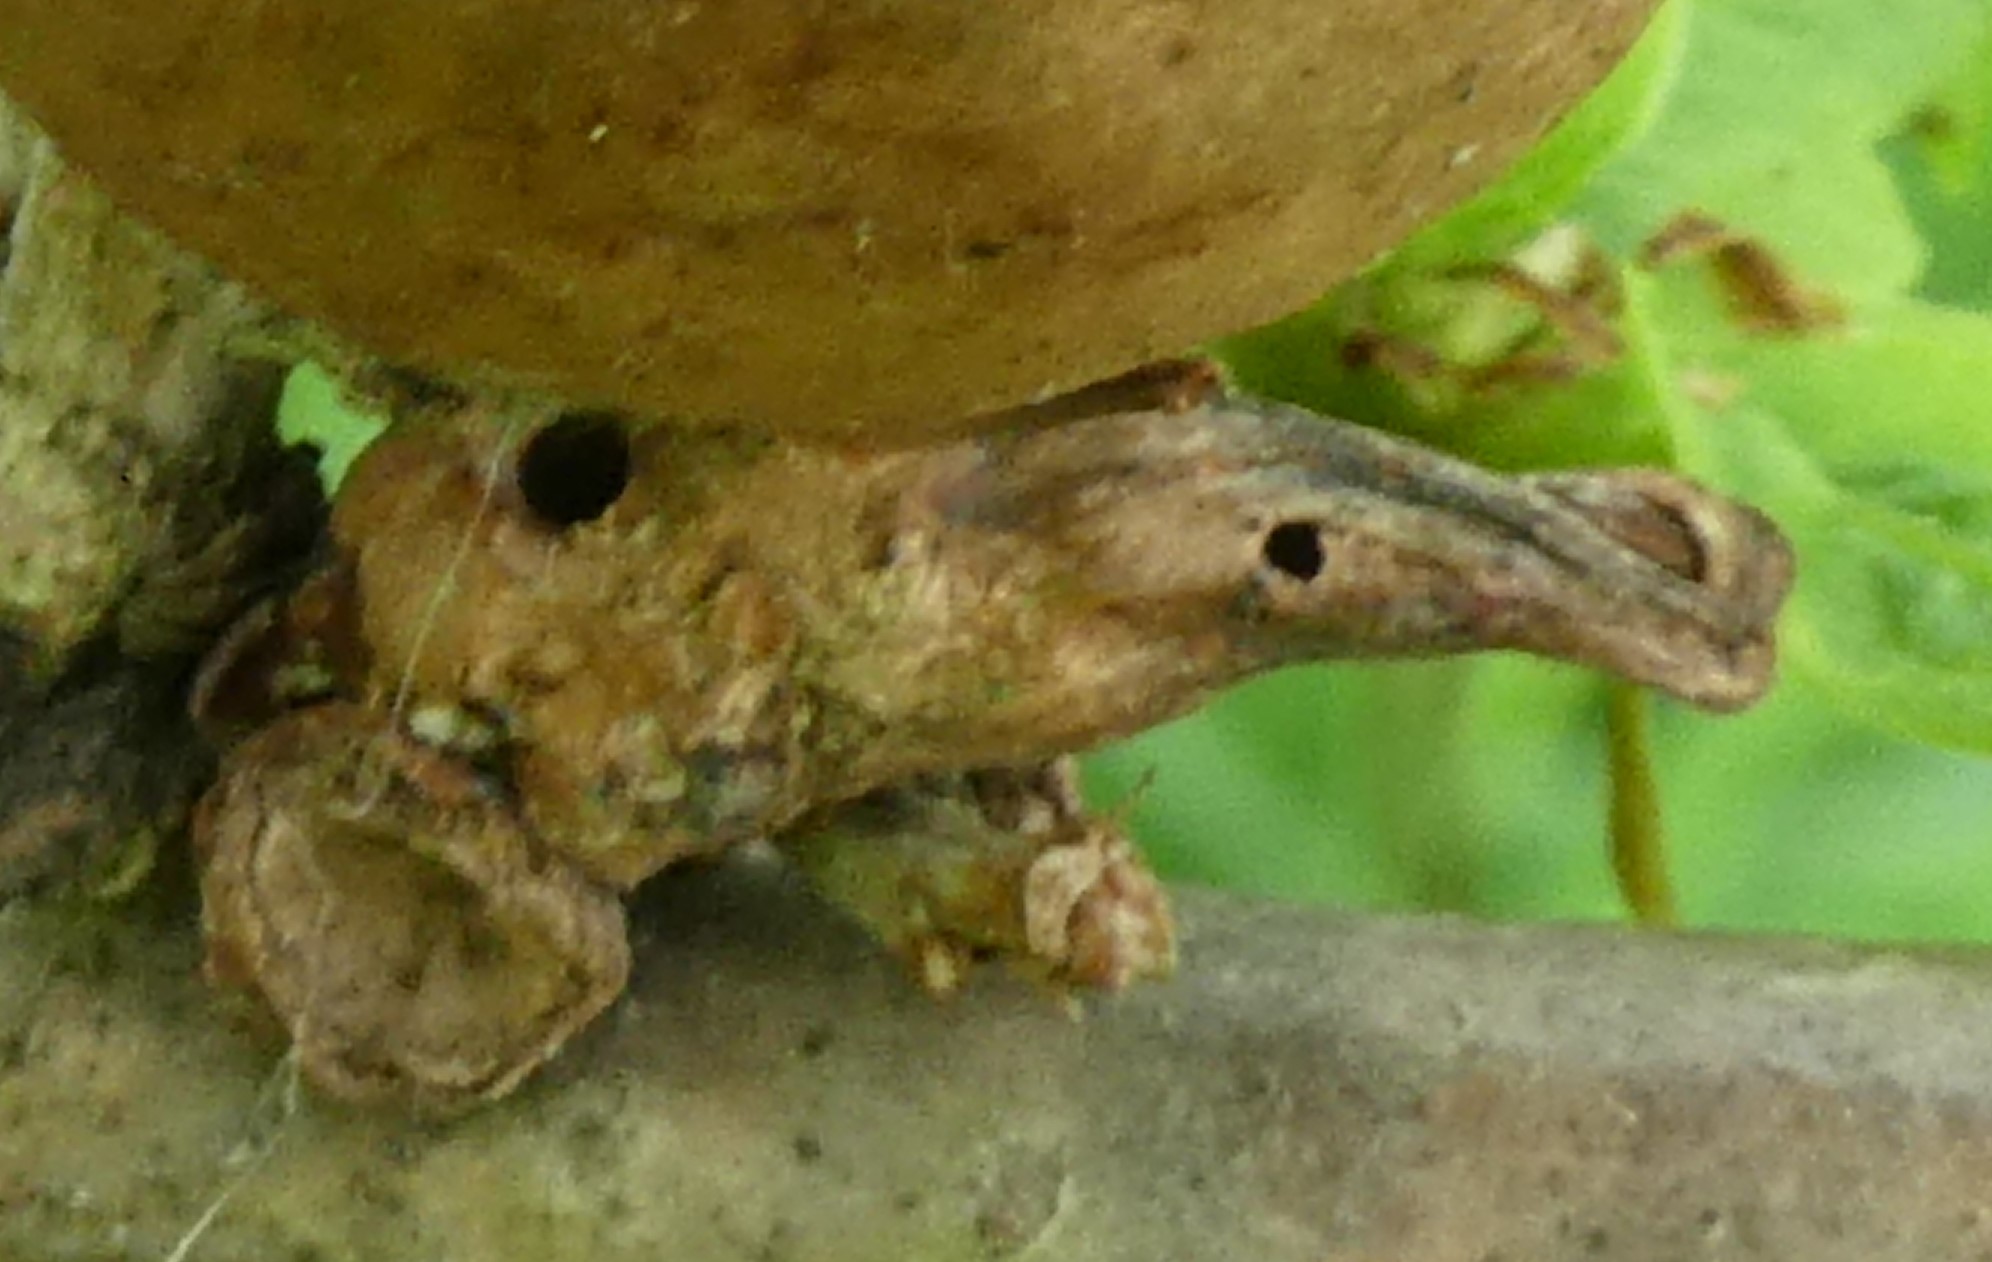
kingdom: Animalia
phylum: Arthropoda
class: Insecta
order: Hymenoptera
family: Cynipidae
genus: Andricus
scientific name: Andricus aries
